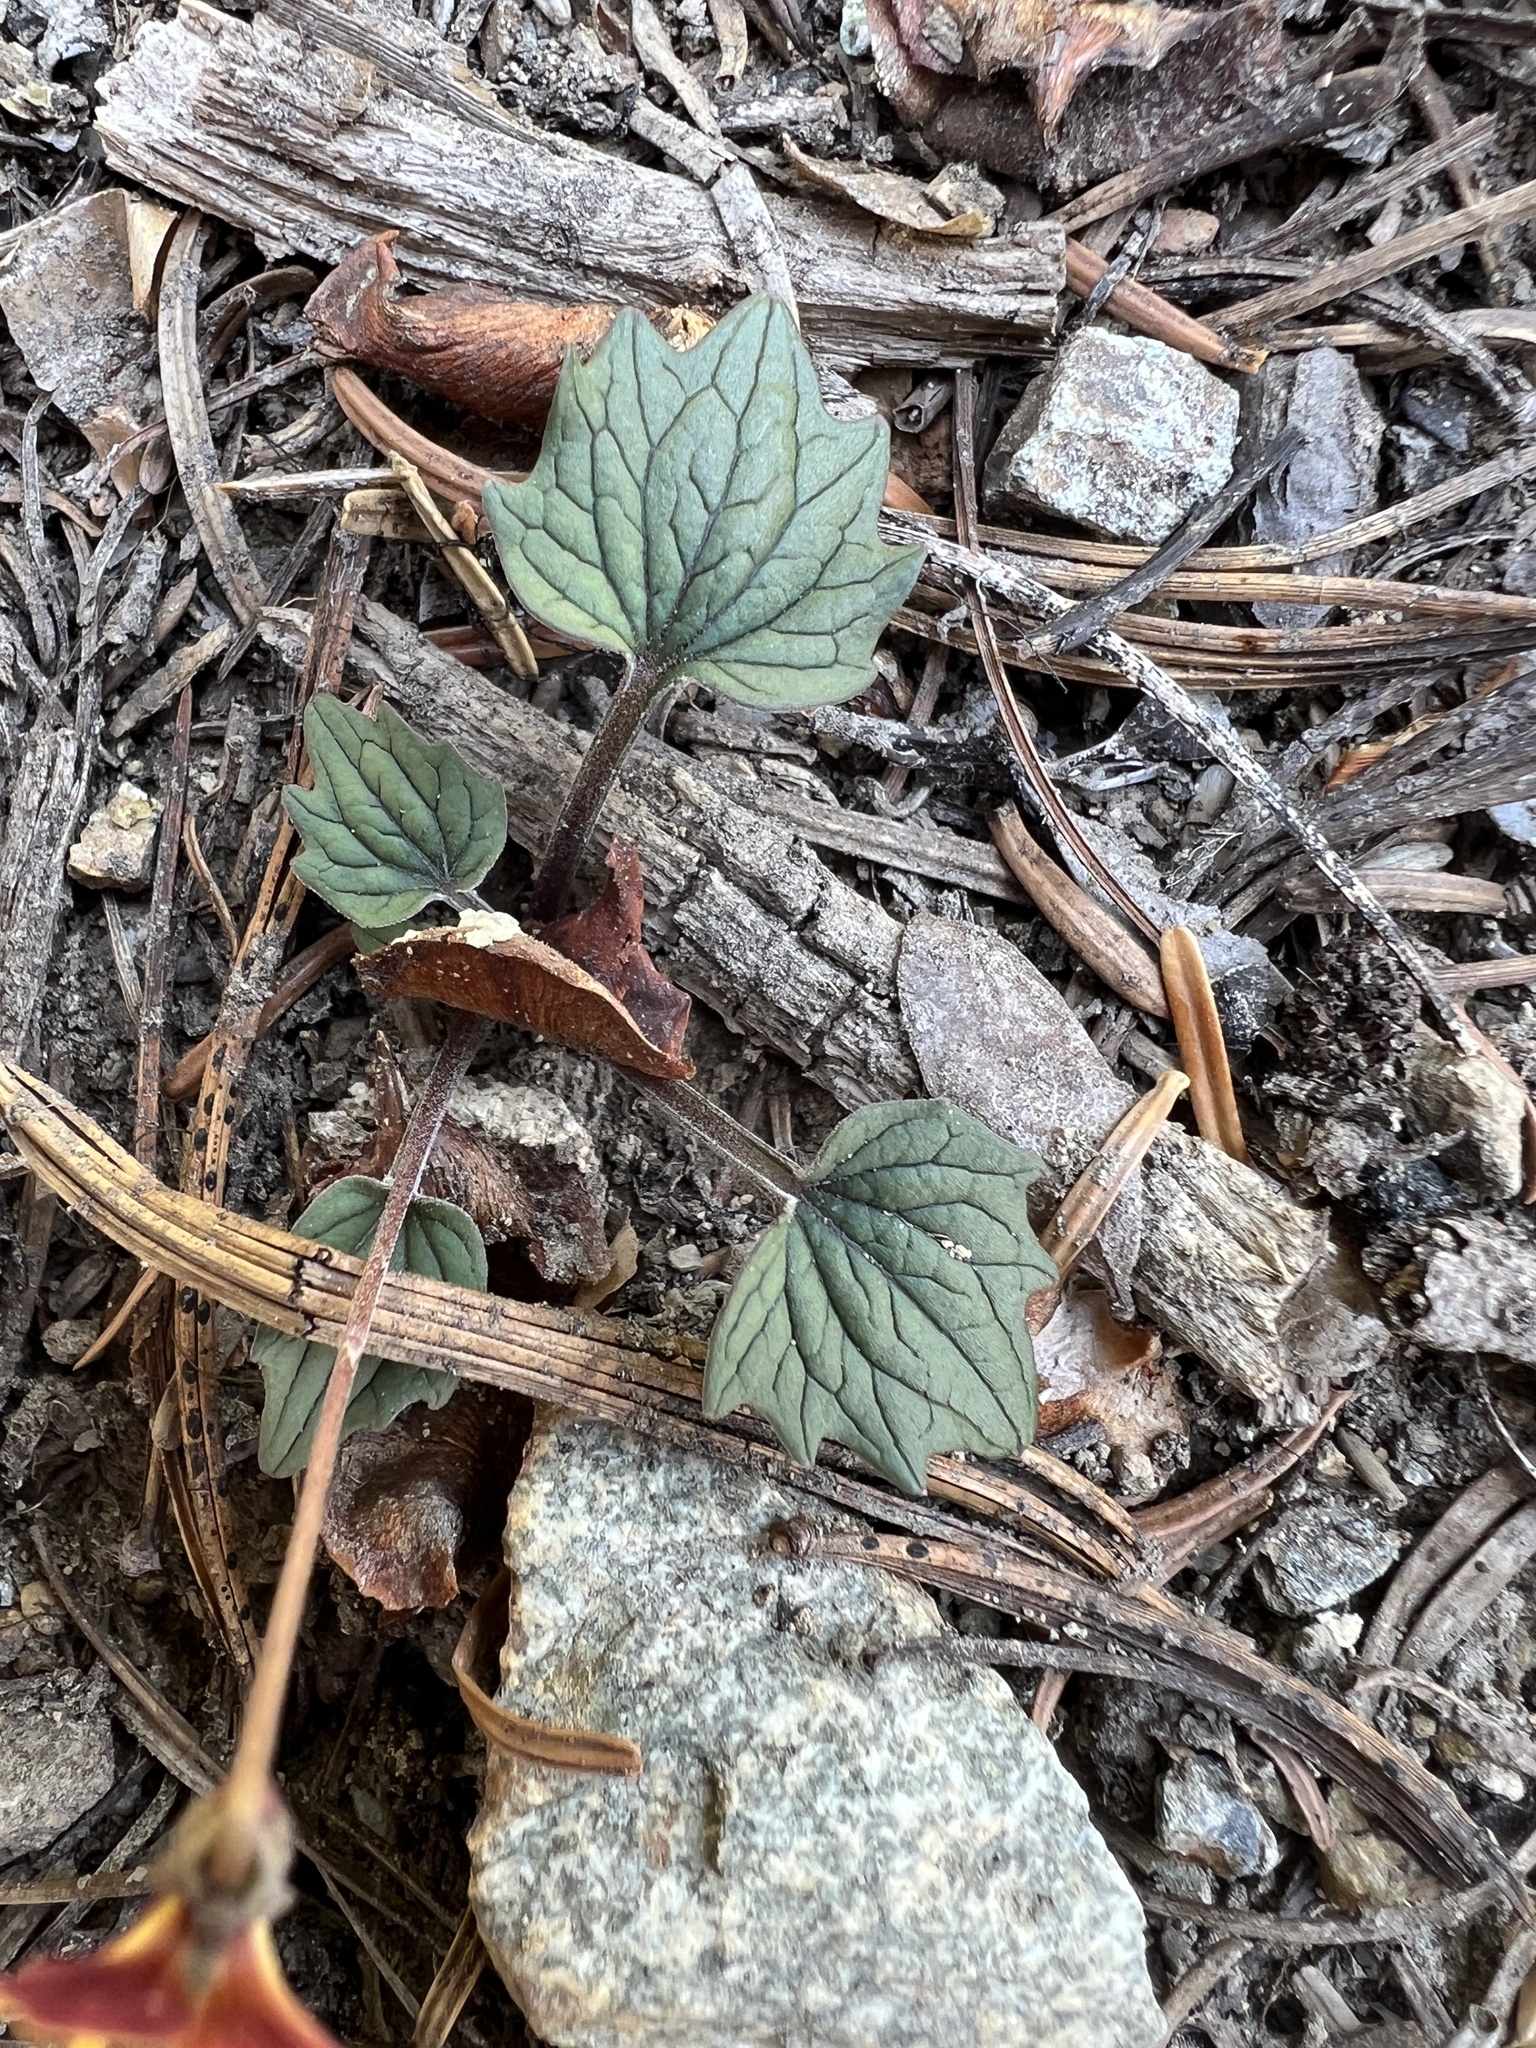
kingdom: Plantae
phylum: Tracheophyta
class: Magnoliopsida
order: Malpighiales
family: Violaceae
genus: Viola
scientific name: Viola purpurea
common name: Pine violet
